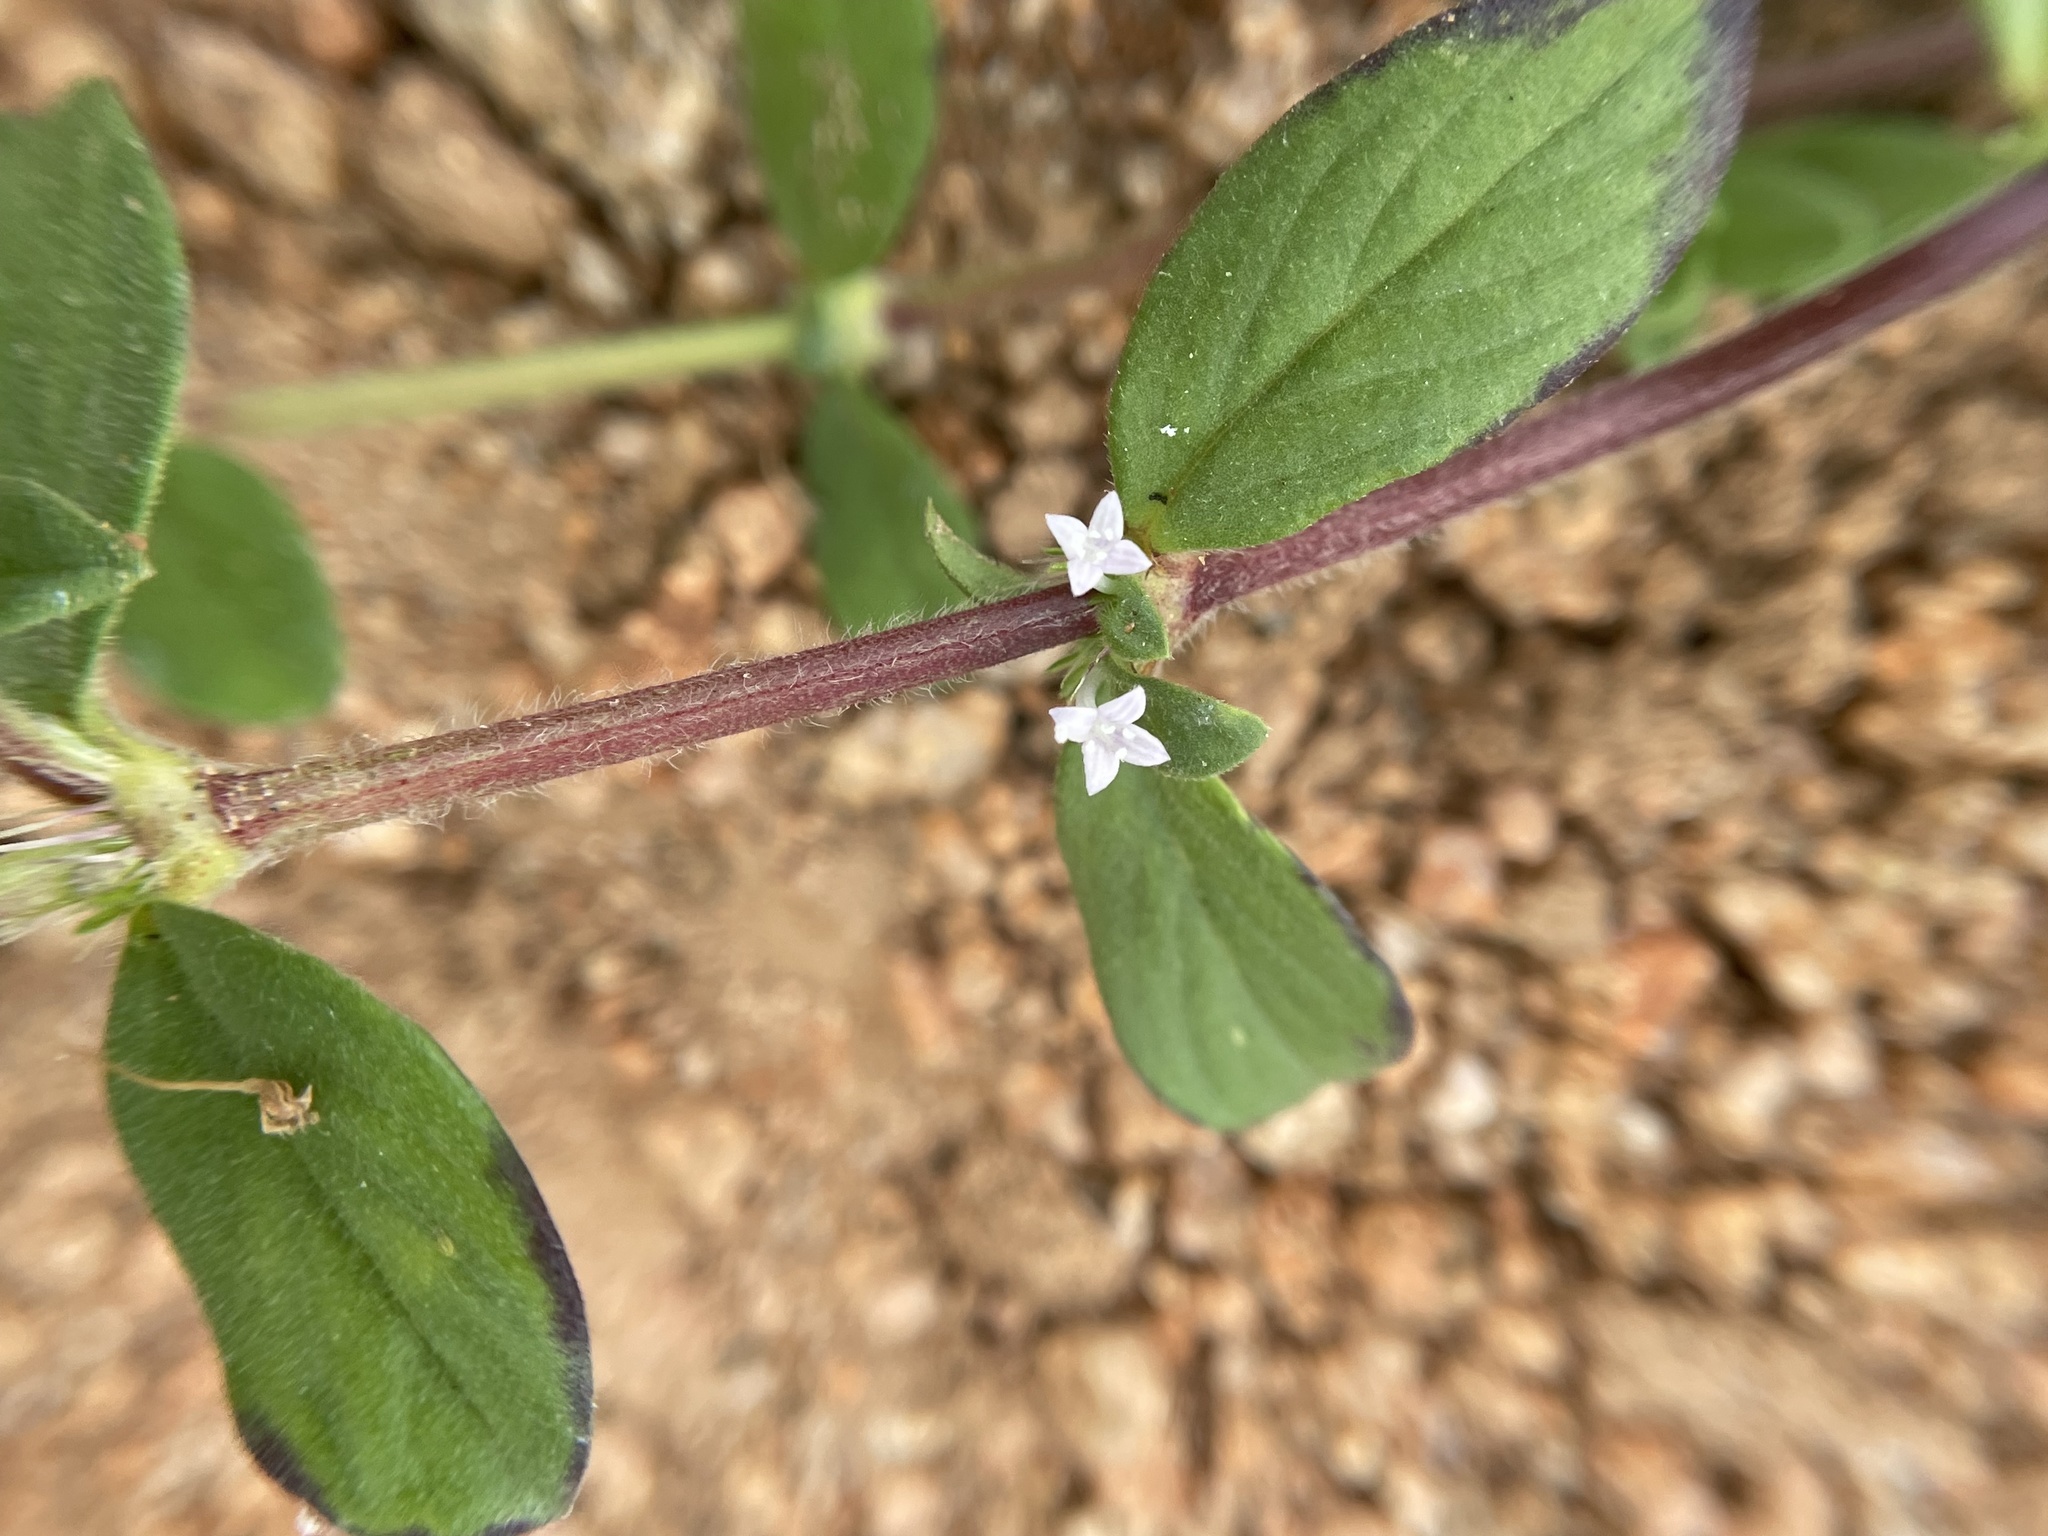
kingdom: Plantae
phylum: Tracheophyta
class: Magnoliopsida
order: Gentianales
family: Rubiaceae
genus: Spermacoce
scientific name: Spermacoce articularis
